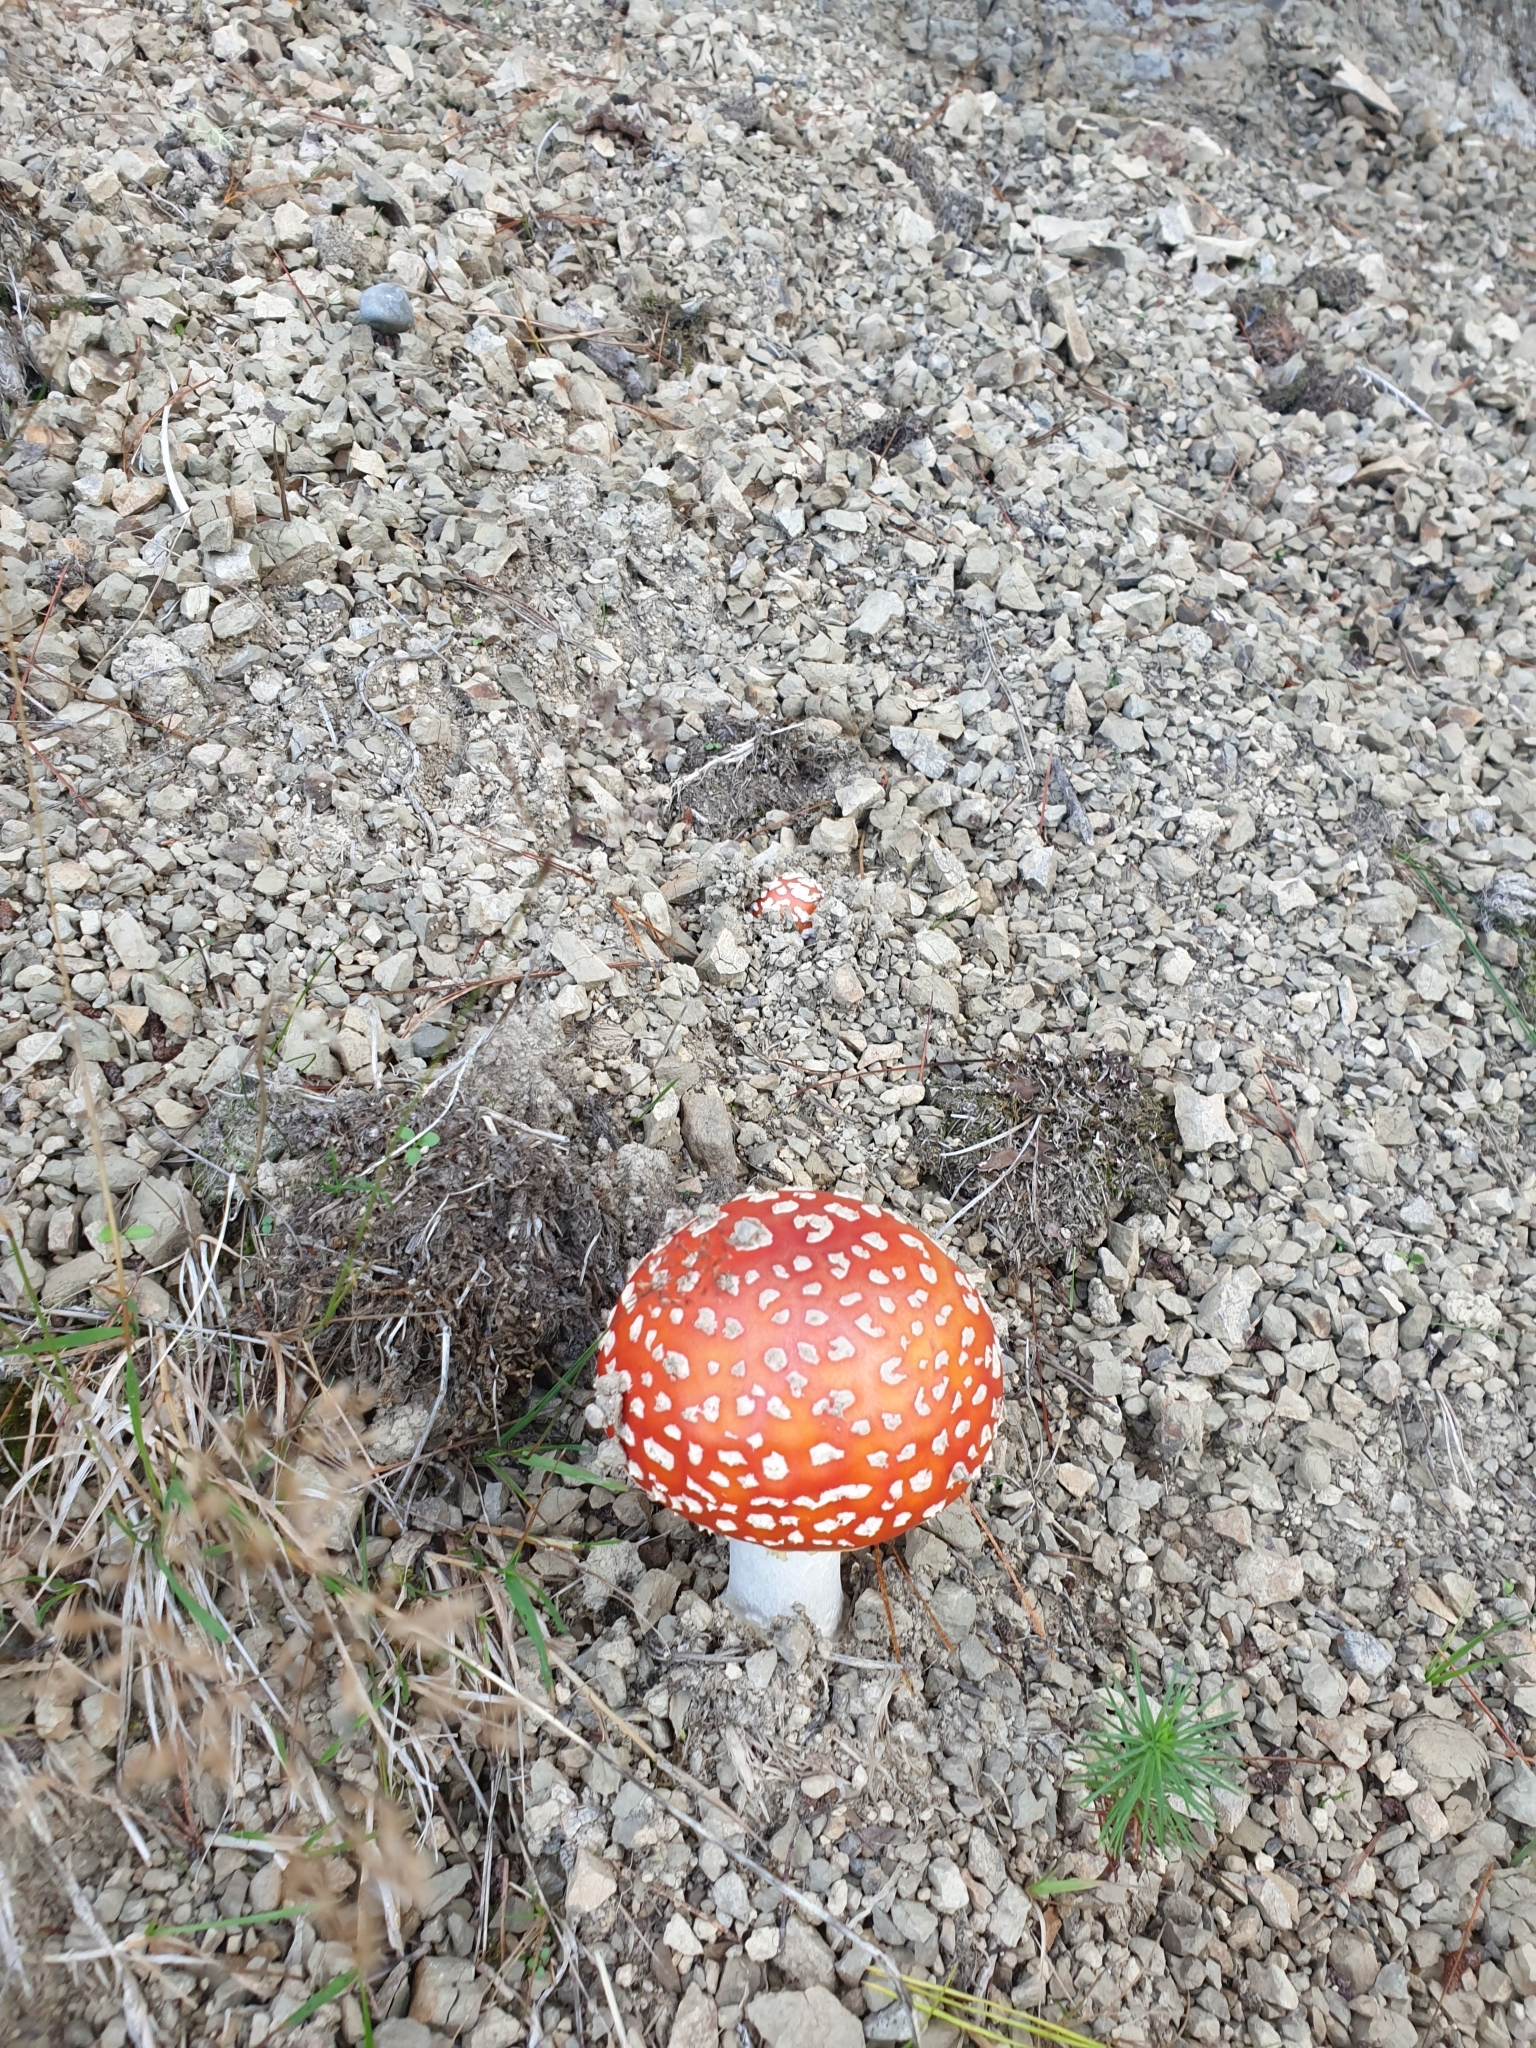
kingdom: Fungi
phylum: Basidiomycota
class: Agaricomycetes
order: Agaricales
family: Amanitaceae
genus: Amanita
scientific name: Amanita muscaria
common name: Fly agaric
